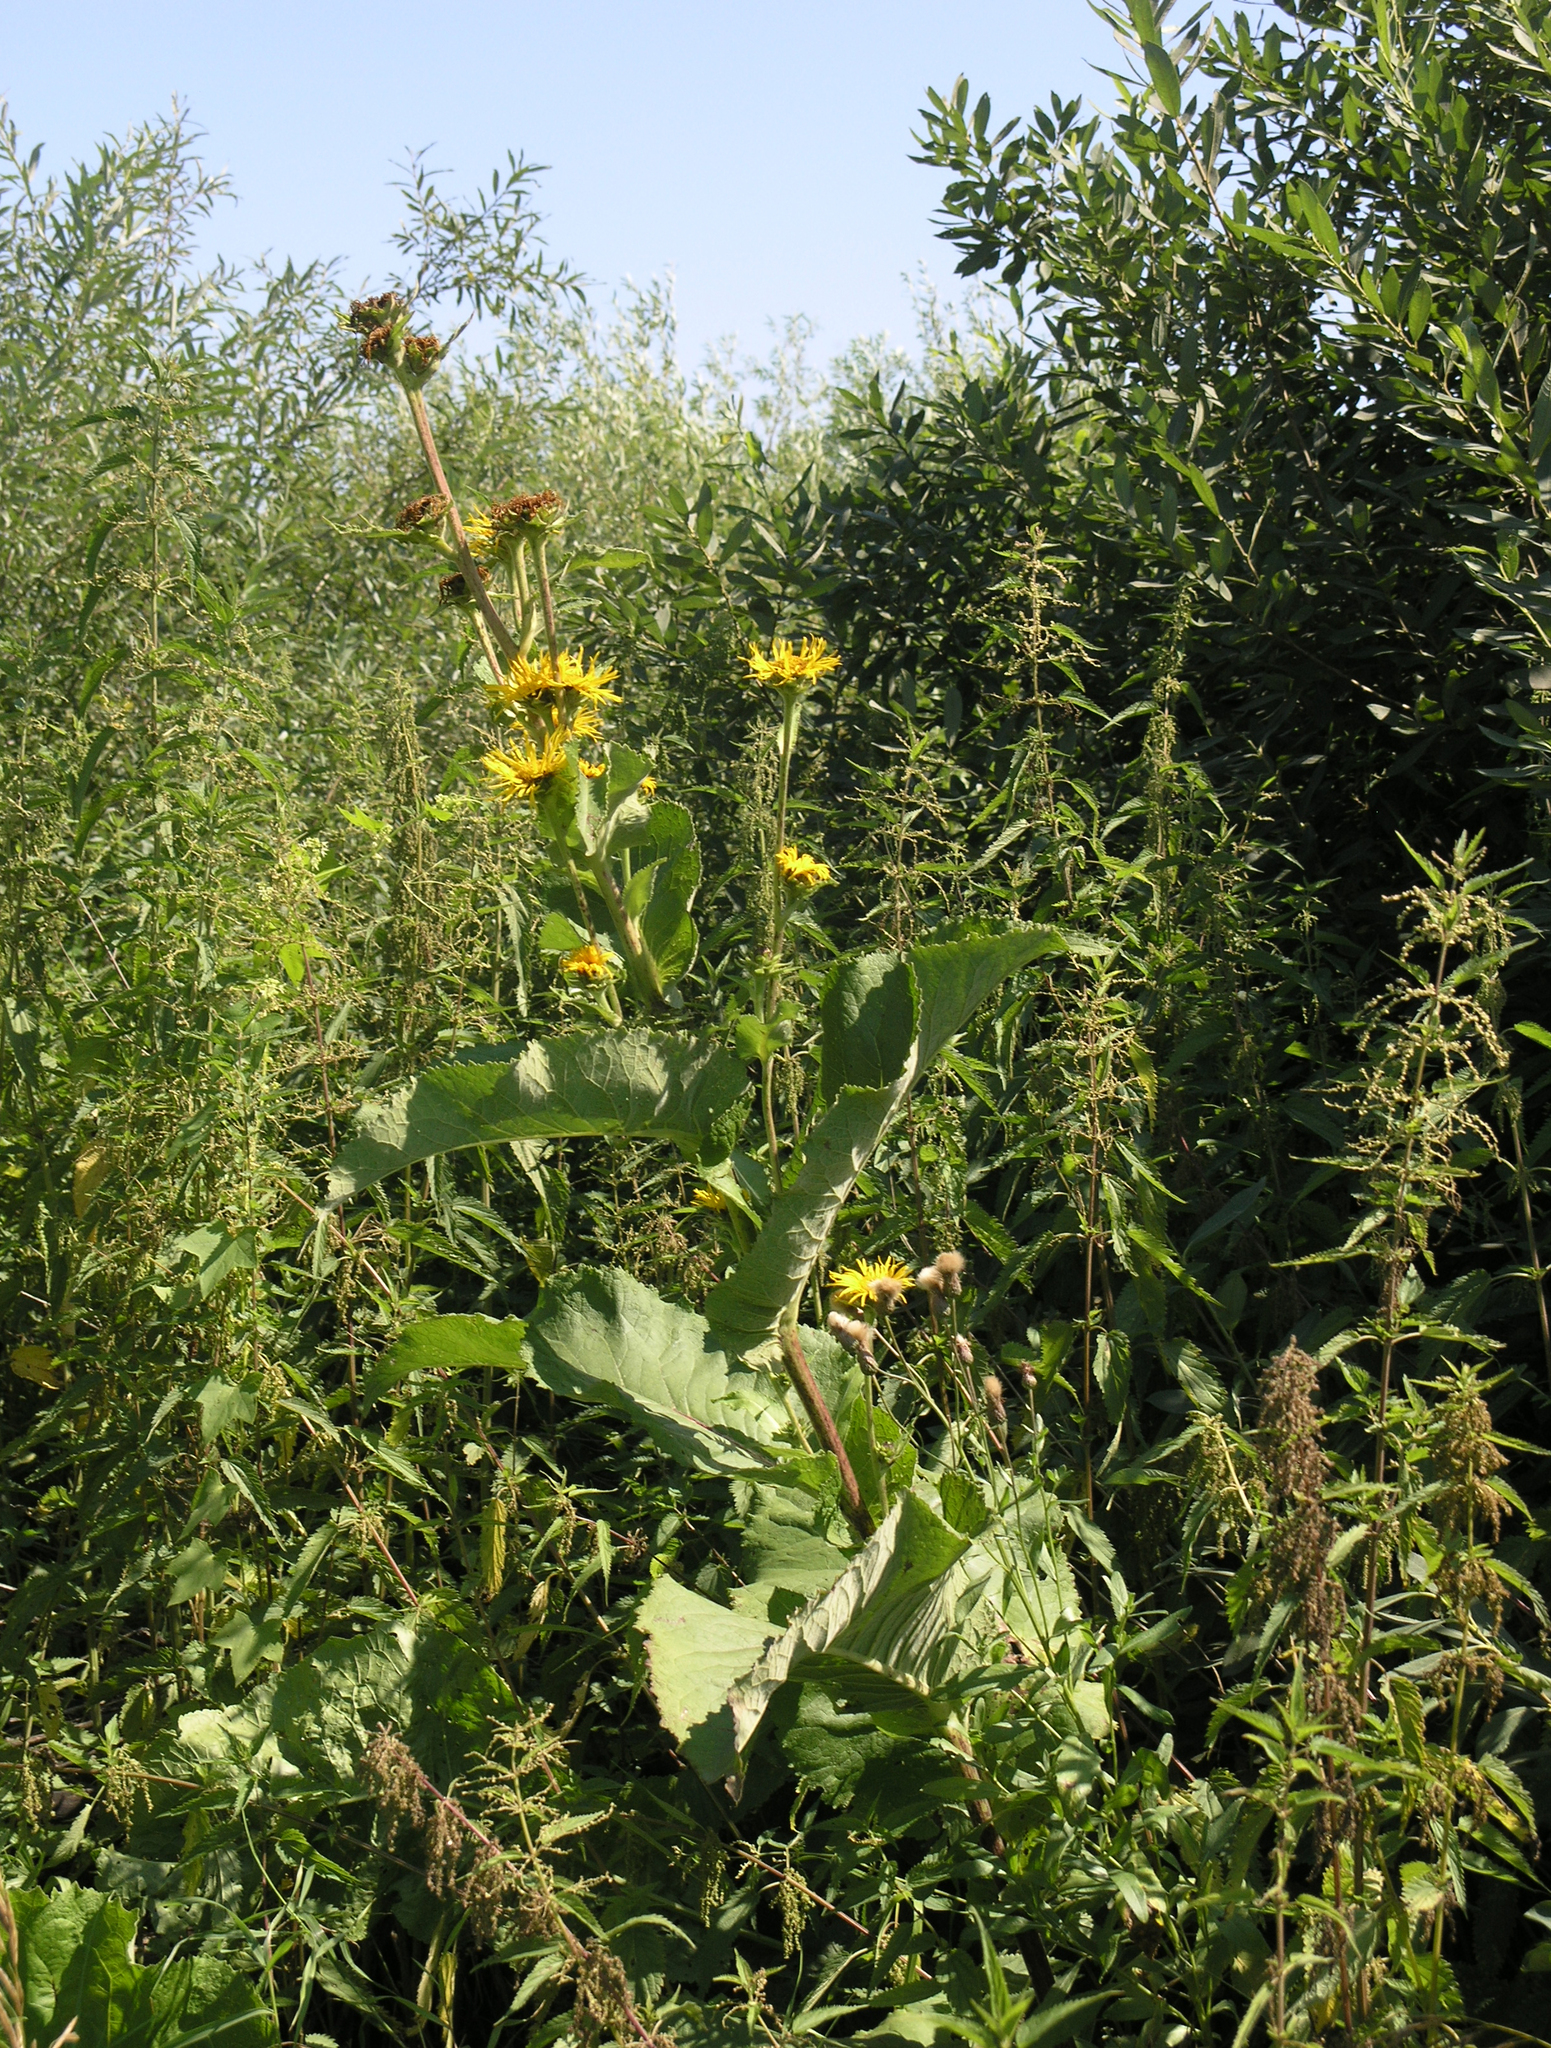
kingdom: Plantae
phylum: Tracheophyta
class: Magnoliopsida
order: Asterales
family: Asteraceae
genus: Inula
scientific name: Inula helenium
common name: Elecampane
